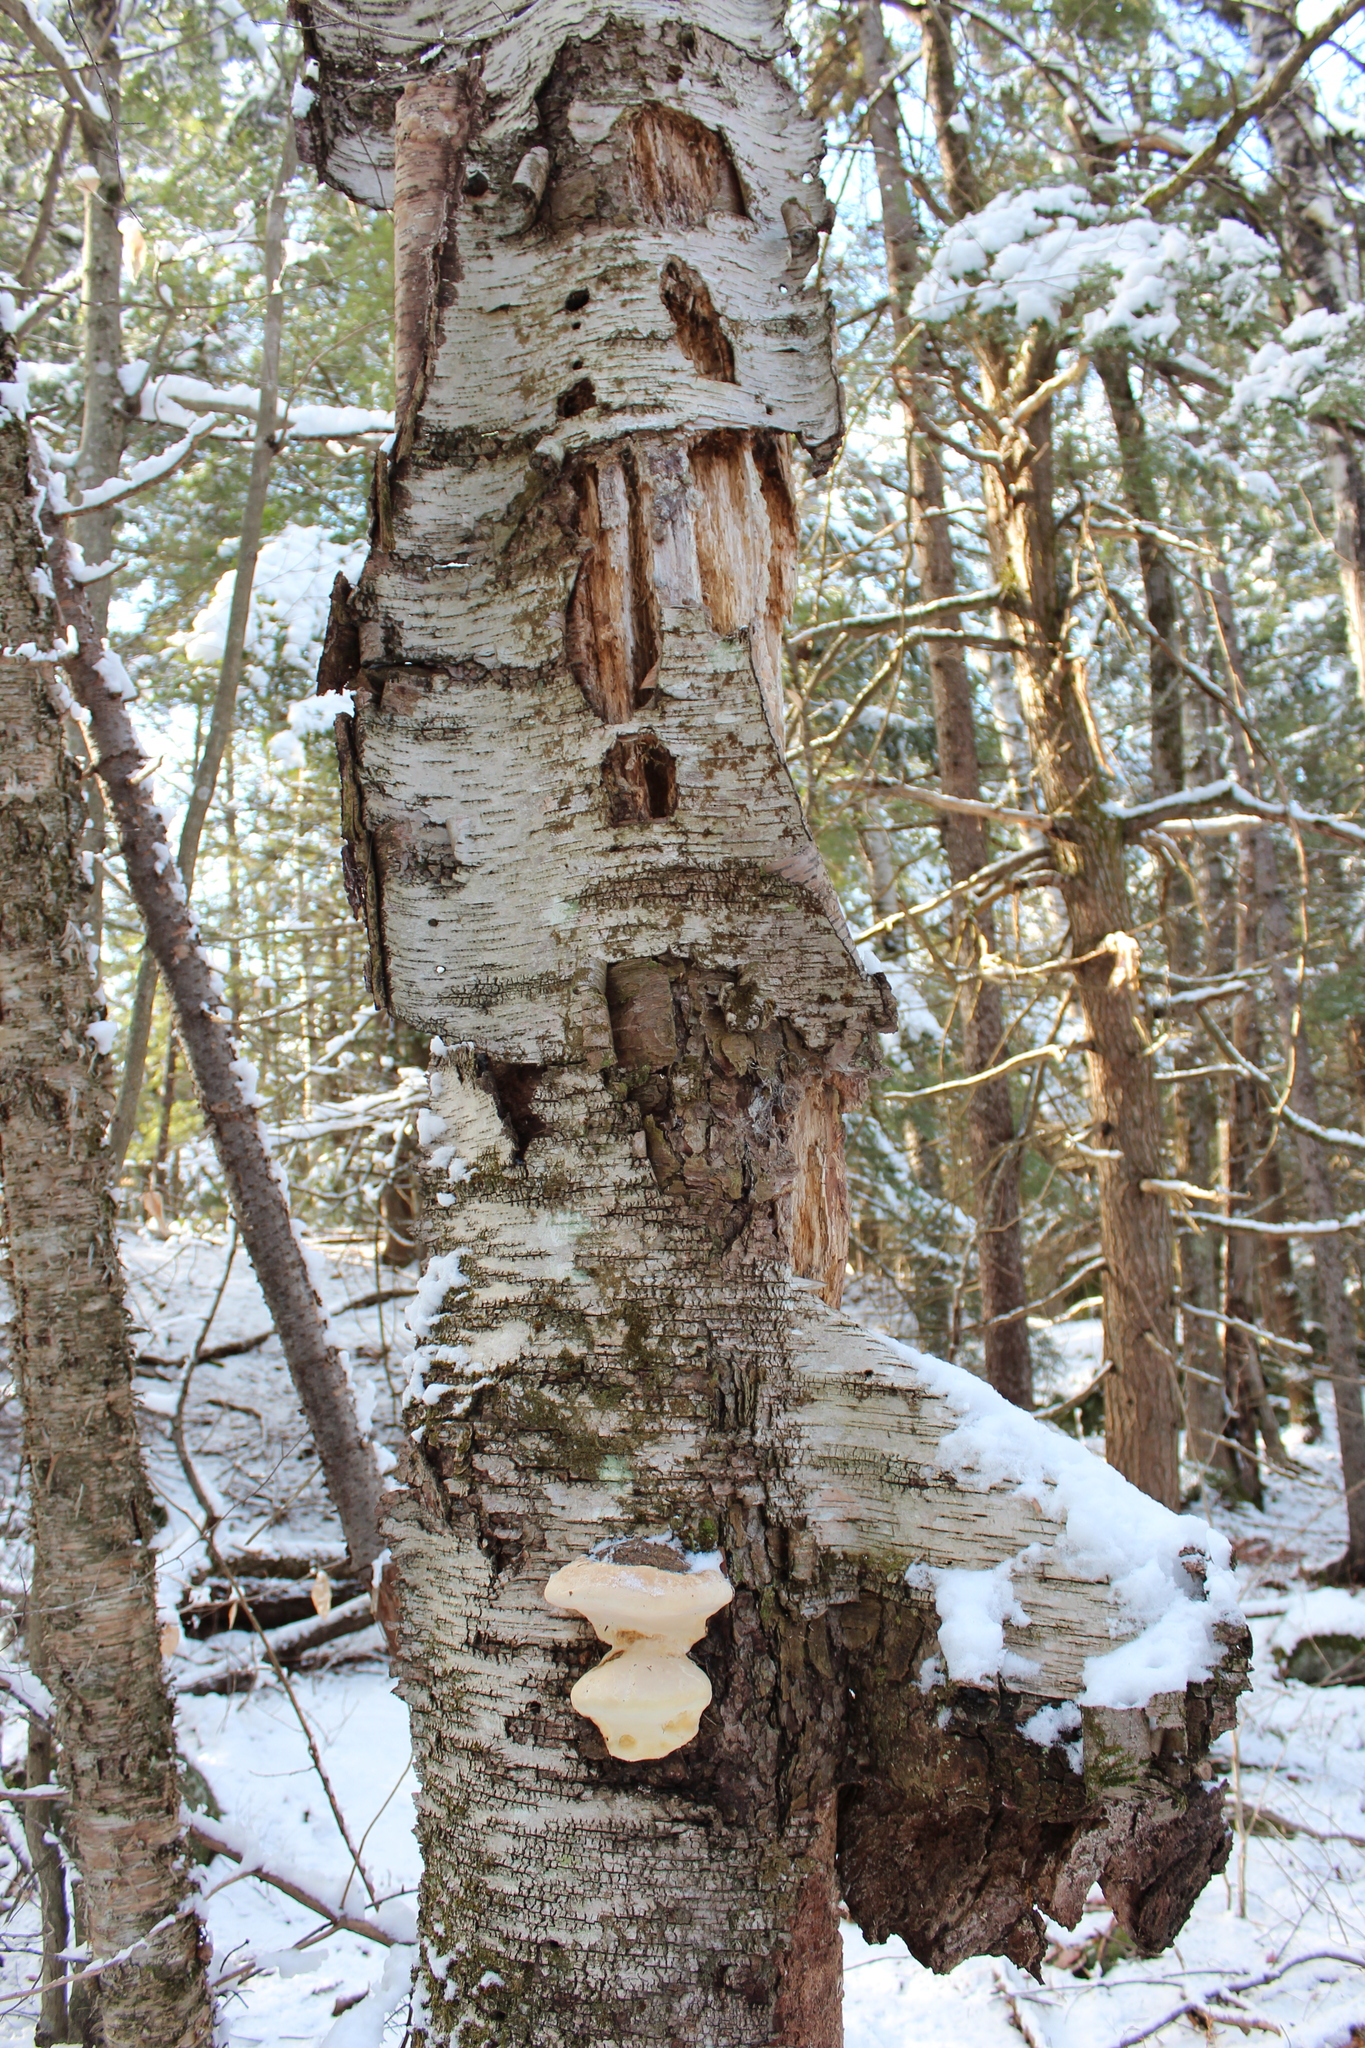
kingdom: Plantae
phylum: Tracheophyta
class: Magnoliopsida
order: Fagales
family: Betulaceae
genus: Betula
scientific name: Betula papyrifera
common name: Paper birch
